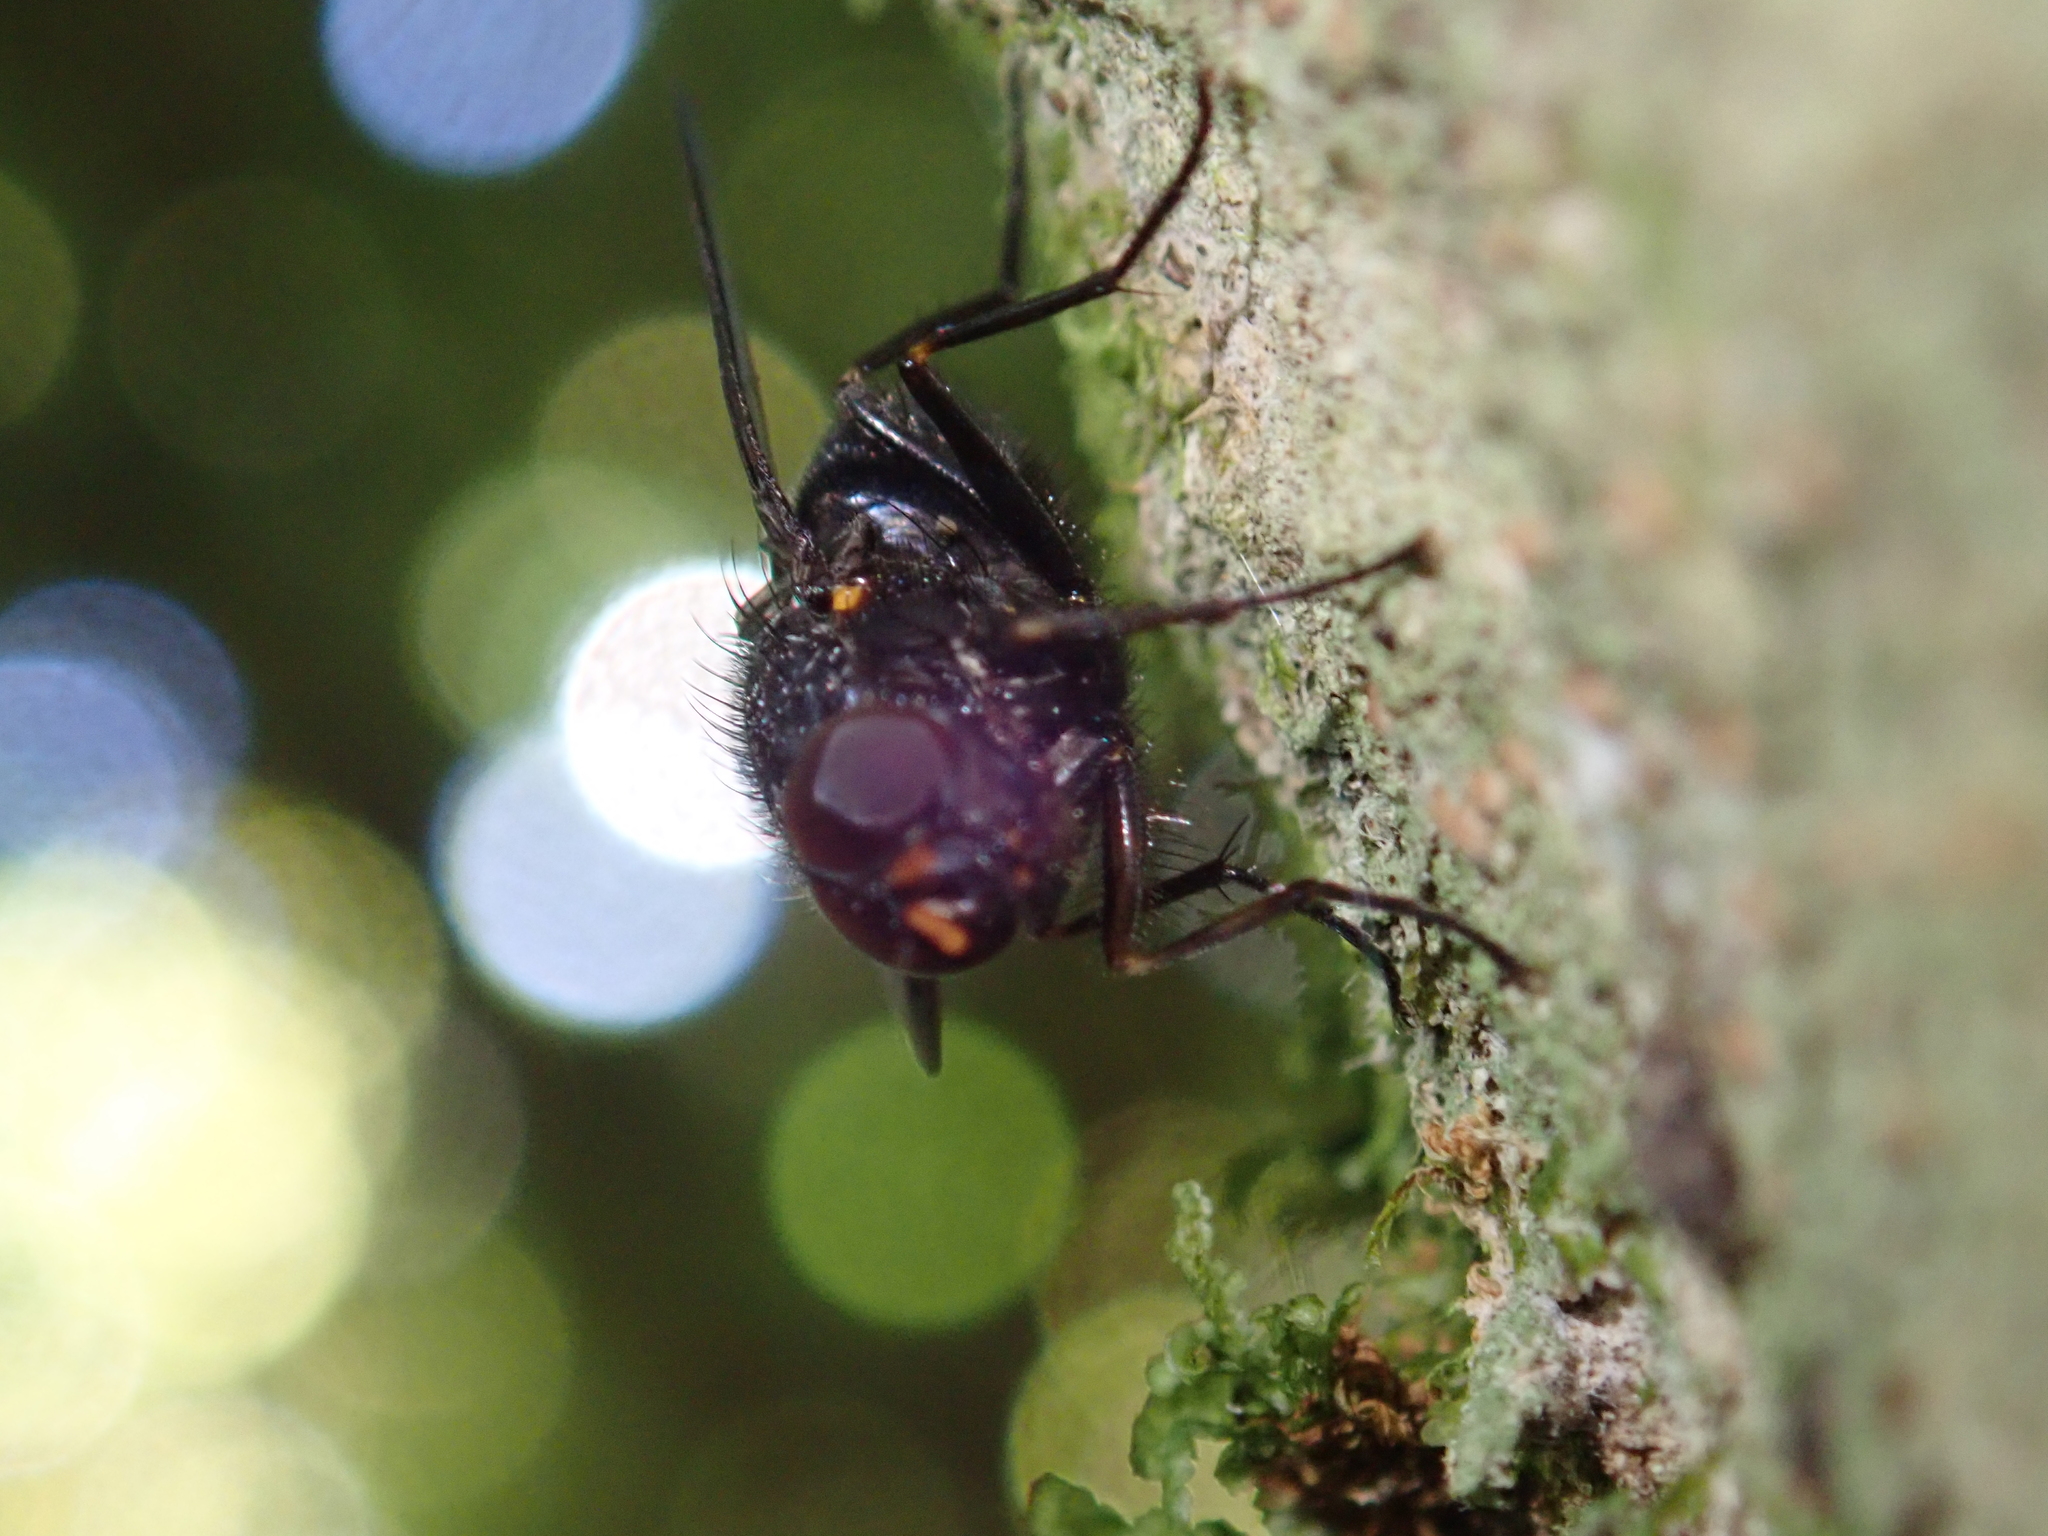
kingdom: Animalia
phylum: Arthropoda
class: Insecta
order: Diptera
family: Muscidae
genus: Calliphoroides
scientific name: Calliphoroides antennatis
